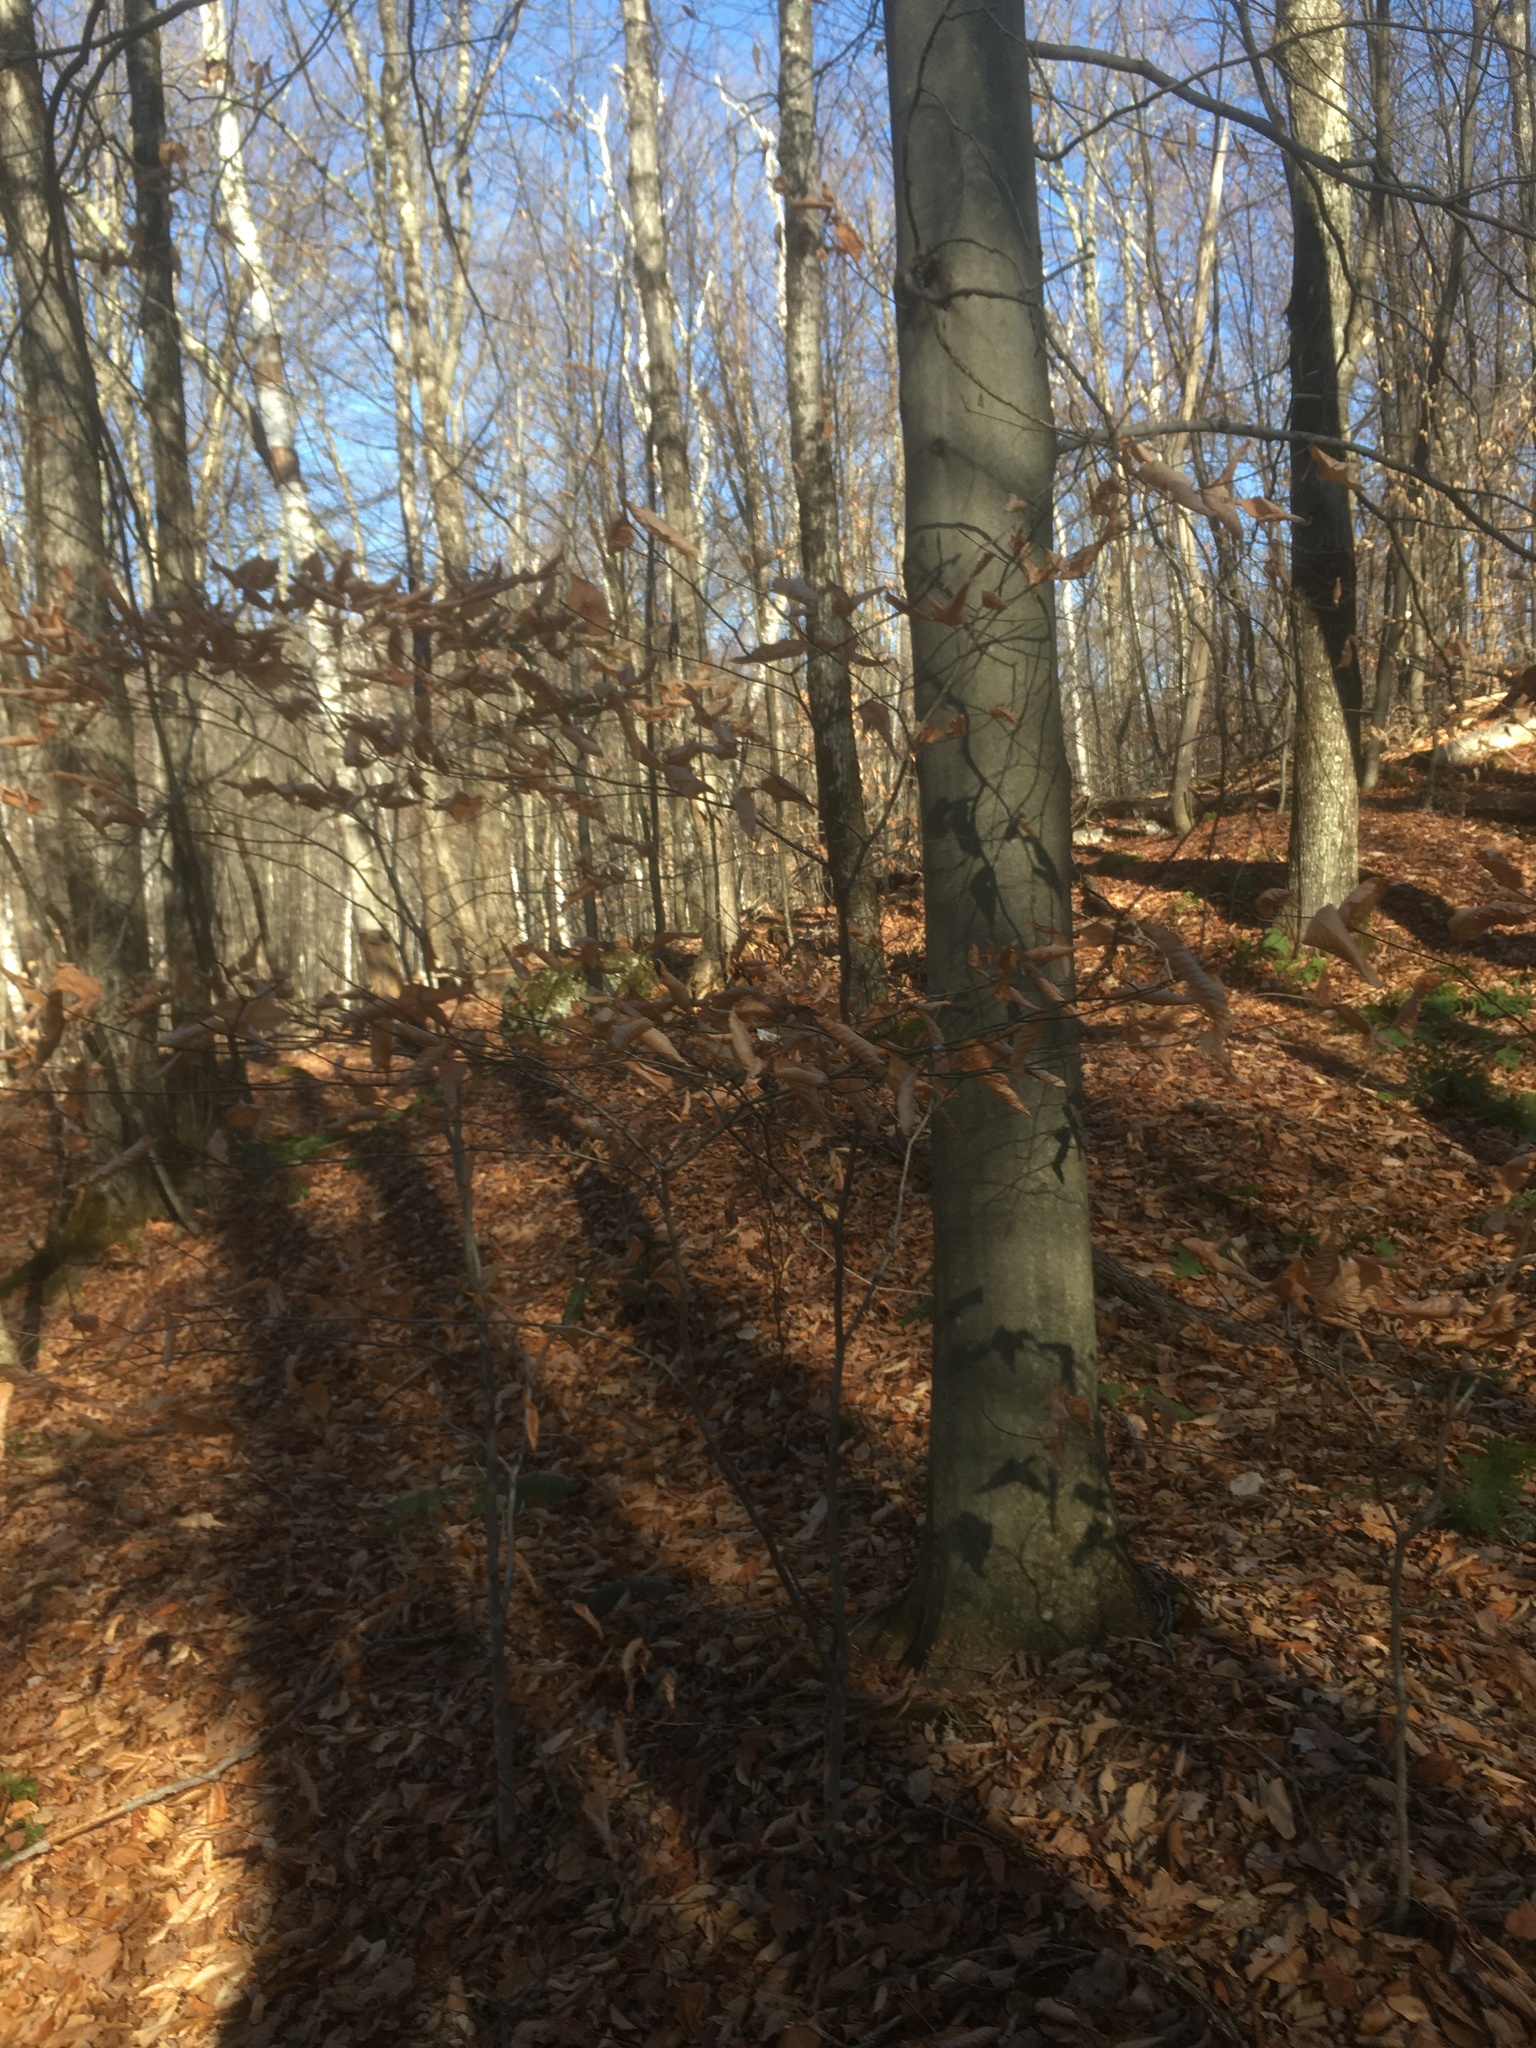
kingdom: Plantae
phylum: Tracheophyta
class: Magnoliopsida
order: Fagales
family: Fagaceae
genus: Fagus
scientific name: Fagus grandifolia
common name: American beech
